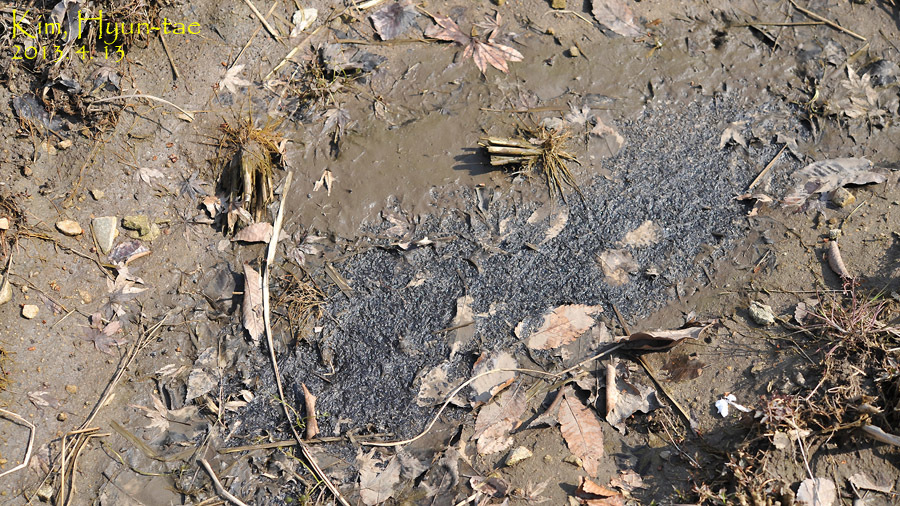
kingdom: Animalia
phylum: Chordata
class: Amphibia
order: Anura
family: Ranidae
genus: Rana
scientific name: Rana uenoi
